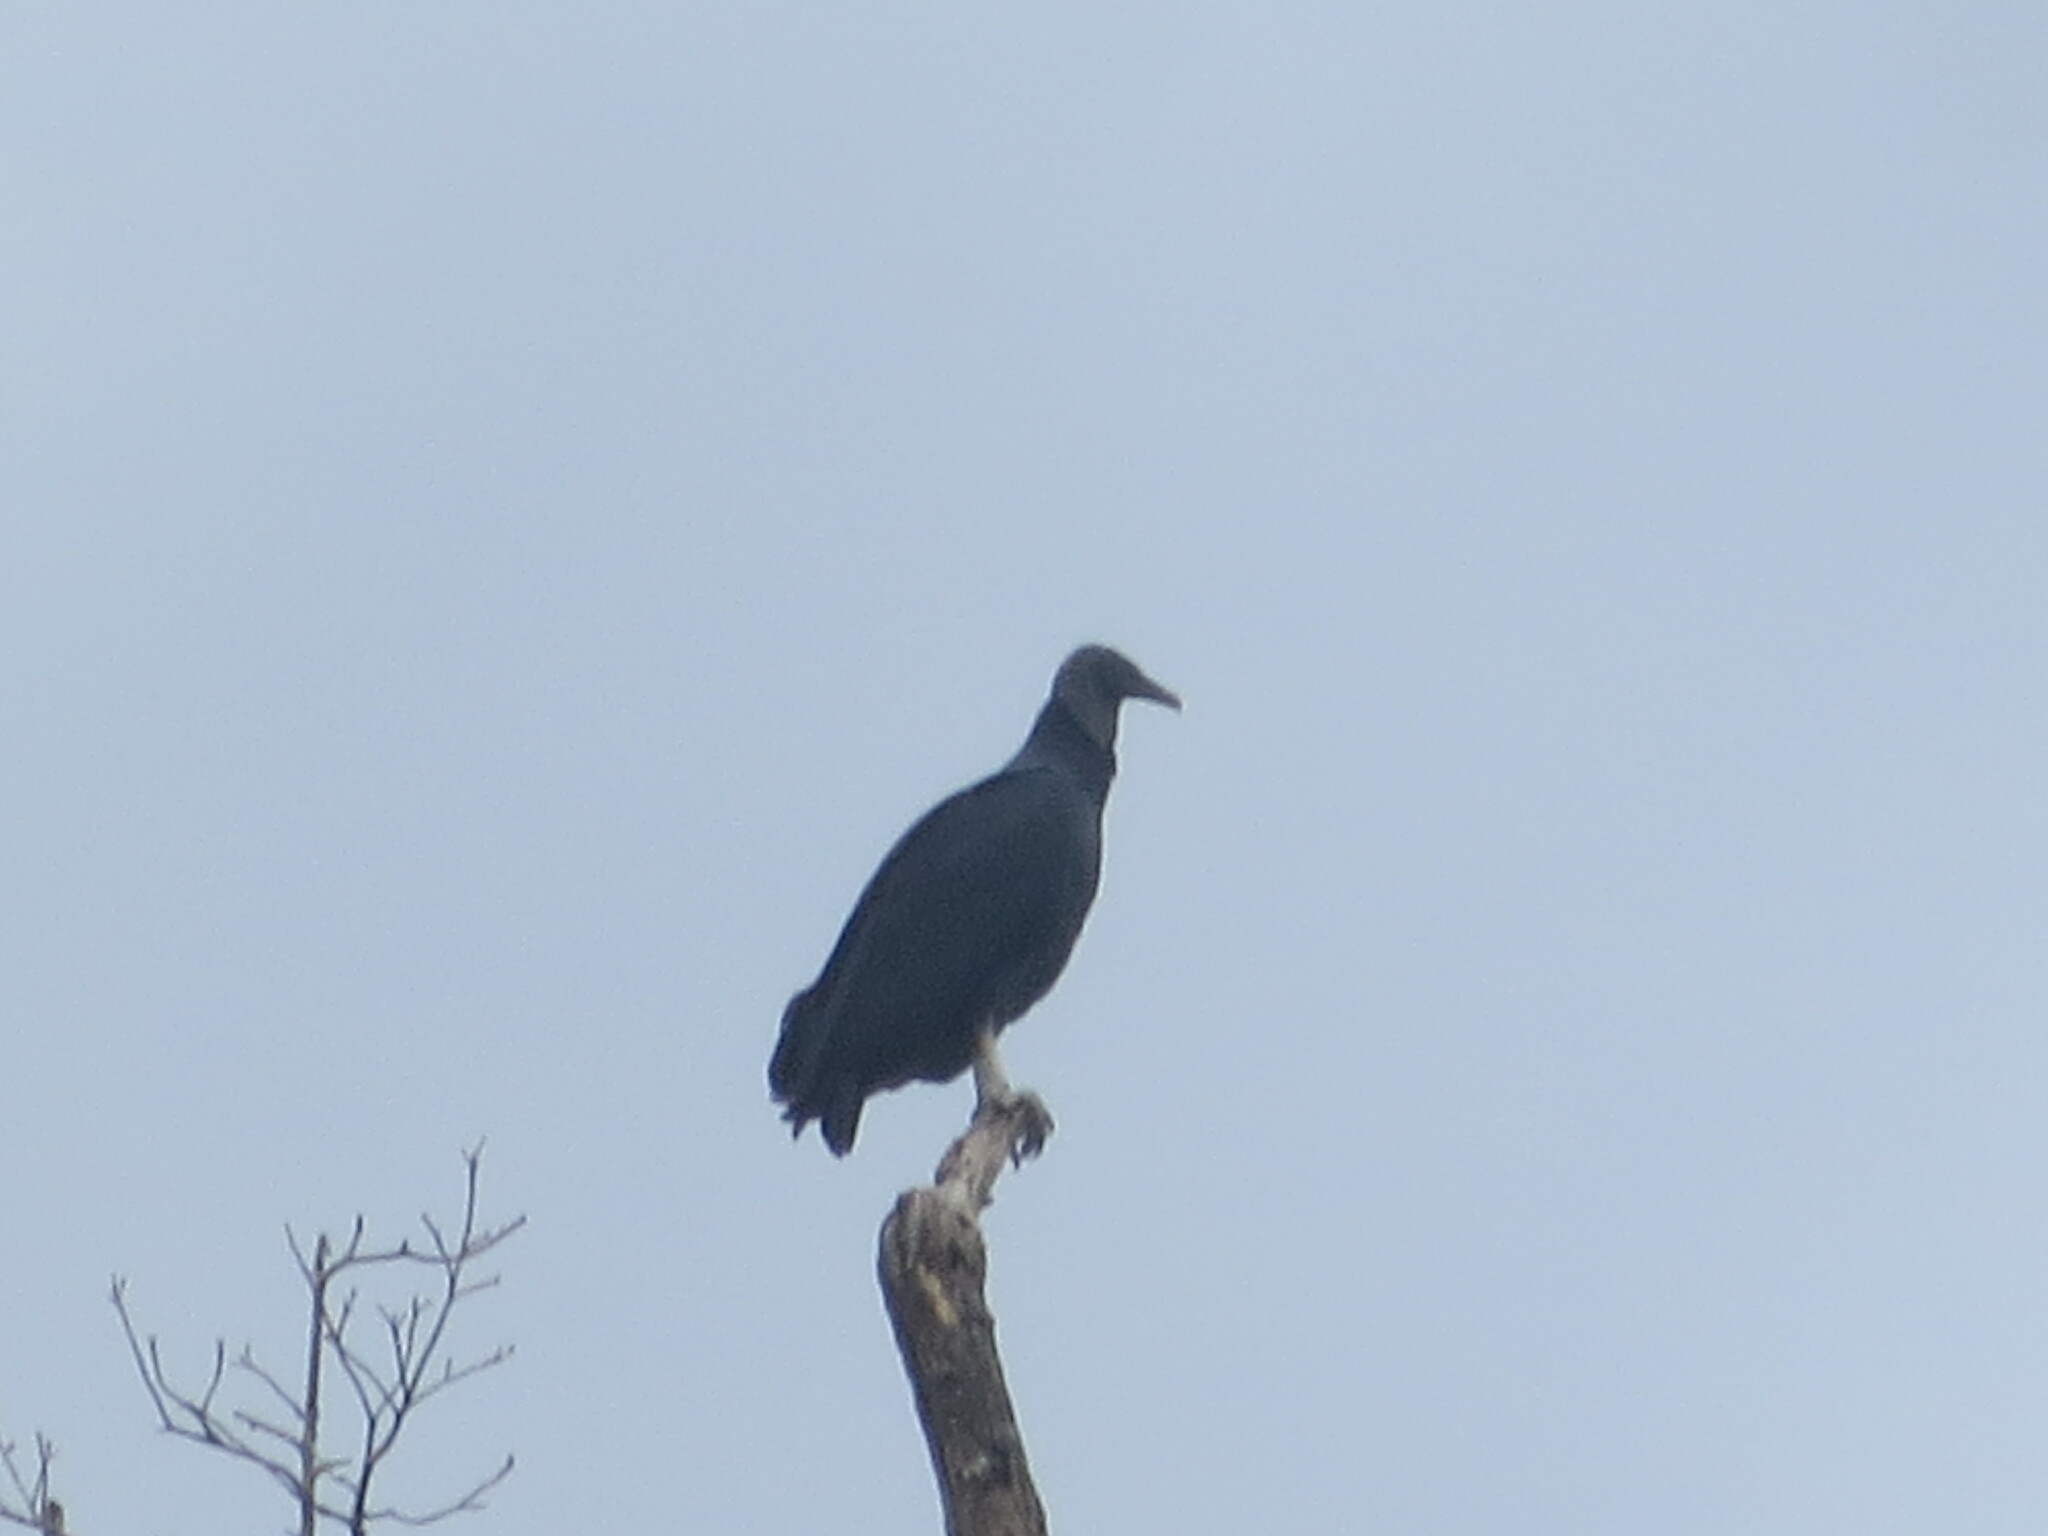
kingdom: Animalia
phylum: Chordata
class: Aves
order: Accipitriformes
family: Cathartidae
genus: Coragyps
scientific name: Coragyps atratus
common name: Black vulture
